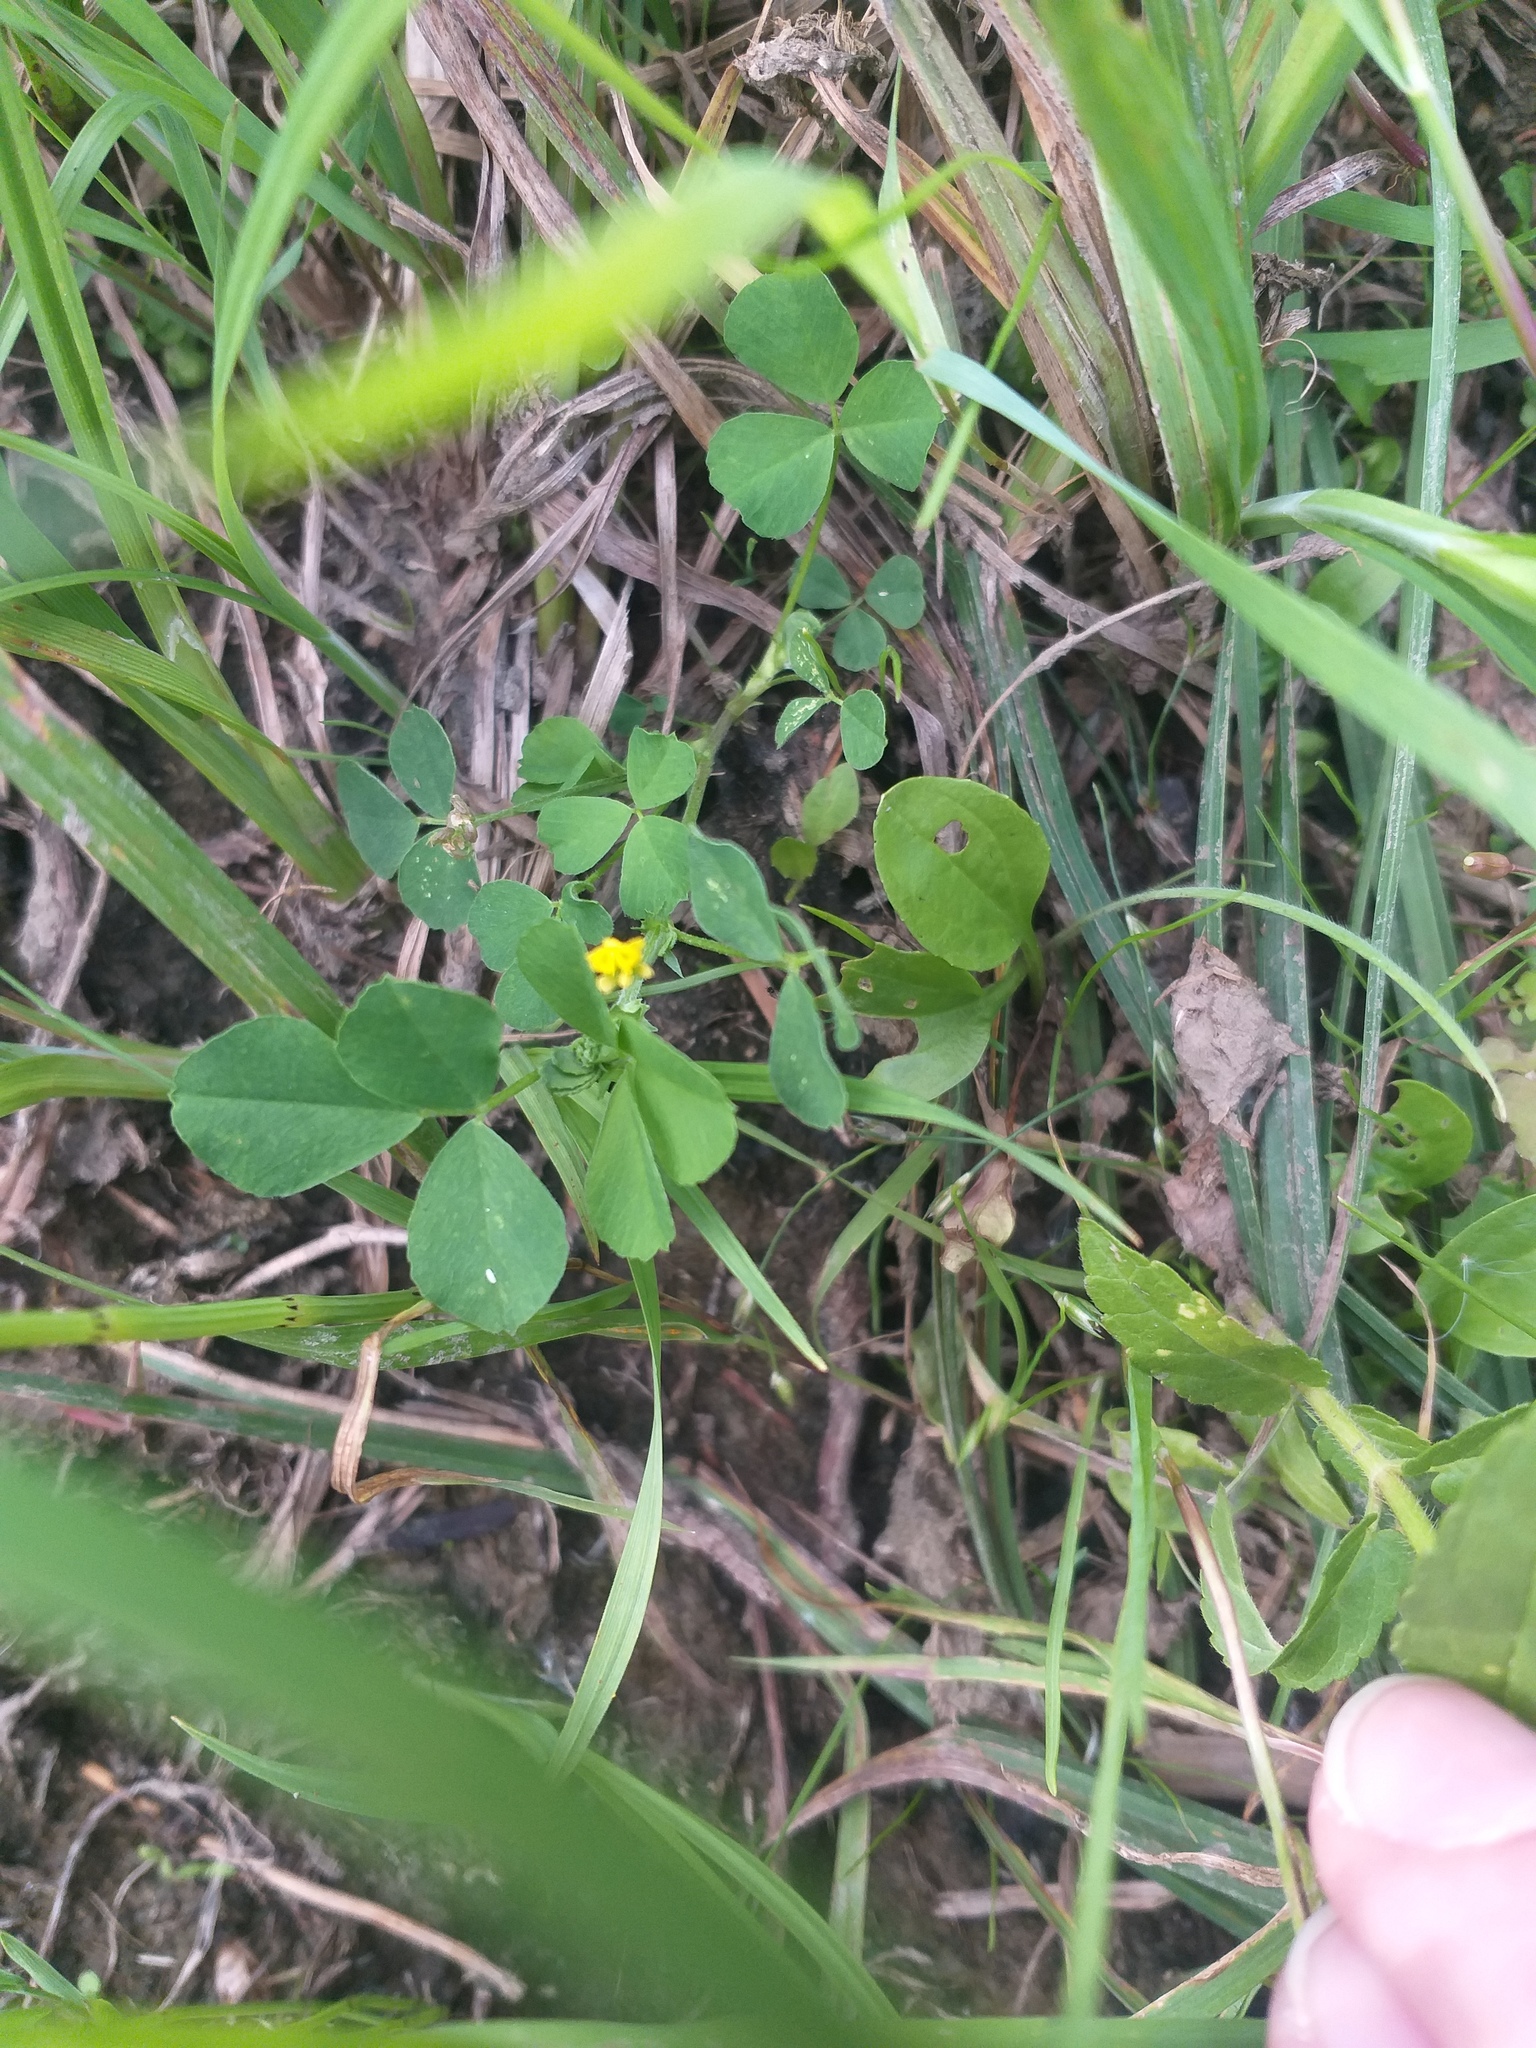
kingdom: Plantae
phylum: Tracheophyta
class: Magnoliopsida
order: Fabales
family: Fabaceae
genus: Medicago
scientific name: Medicago lupulina
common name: Black medick
